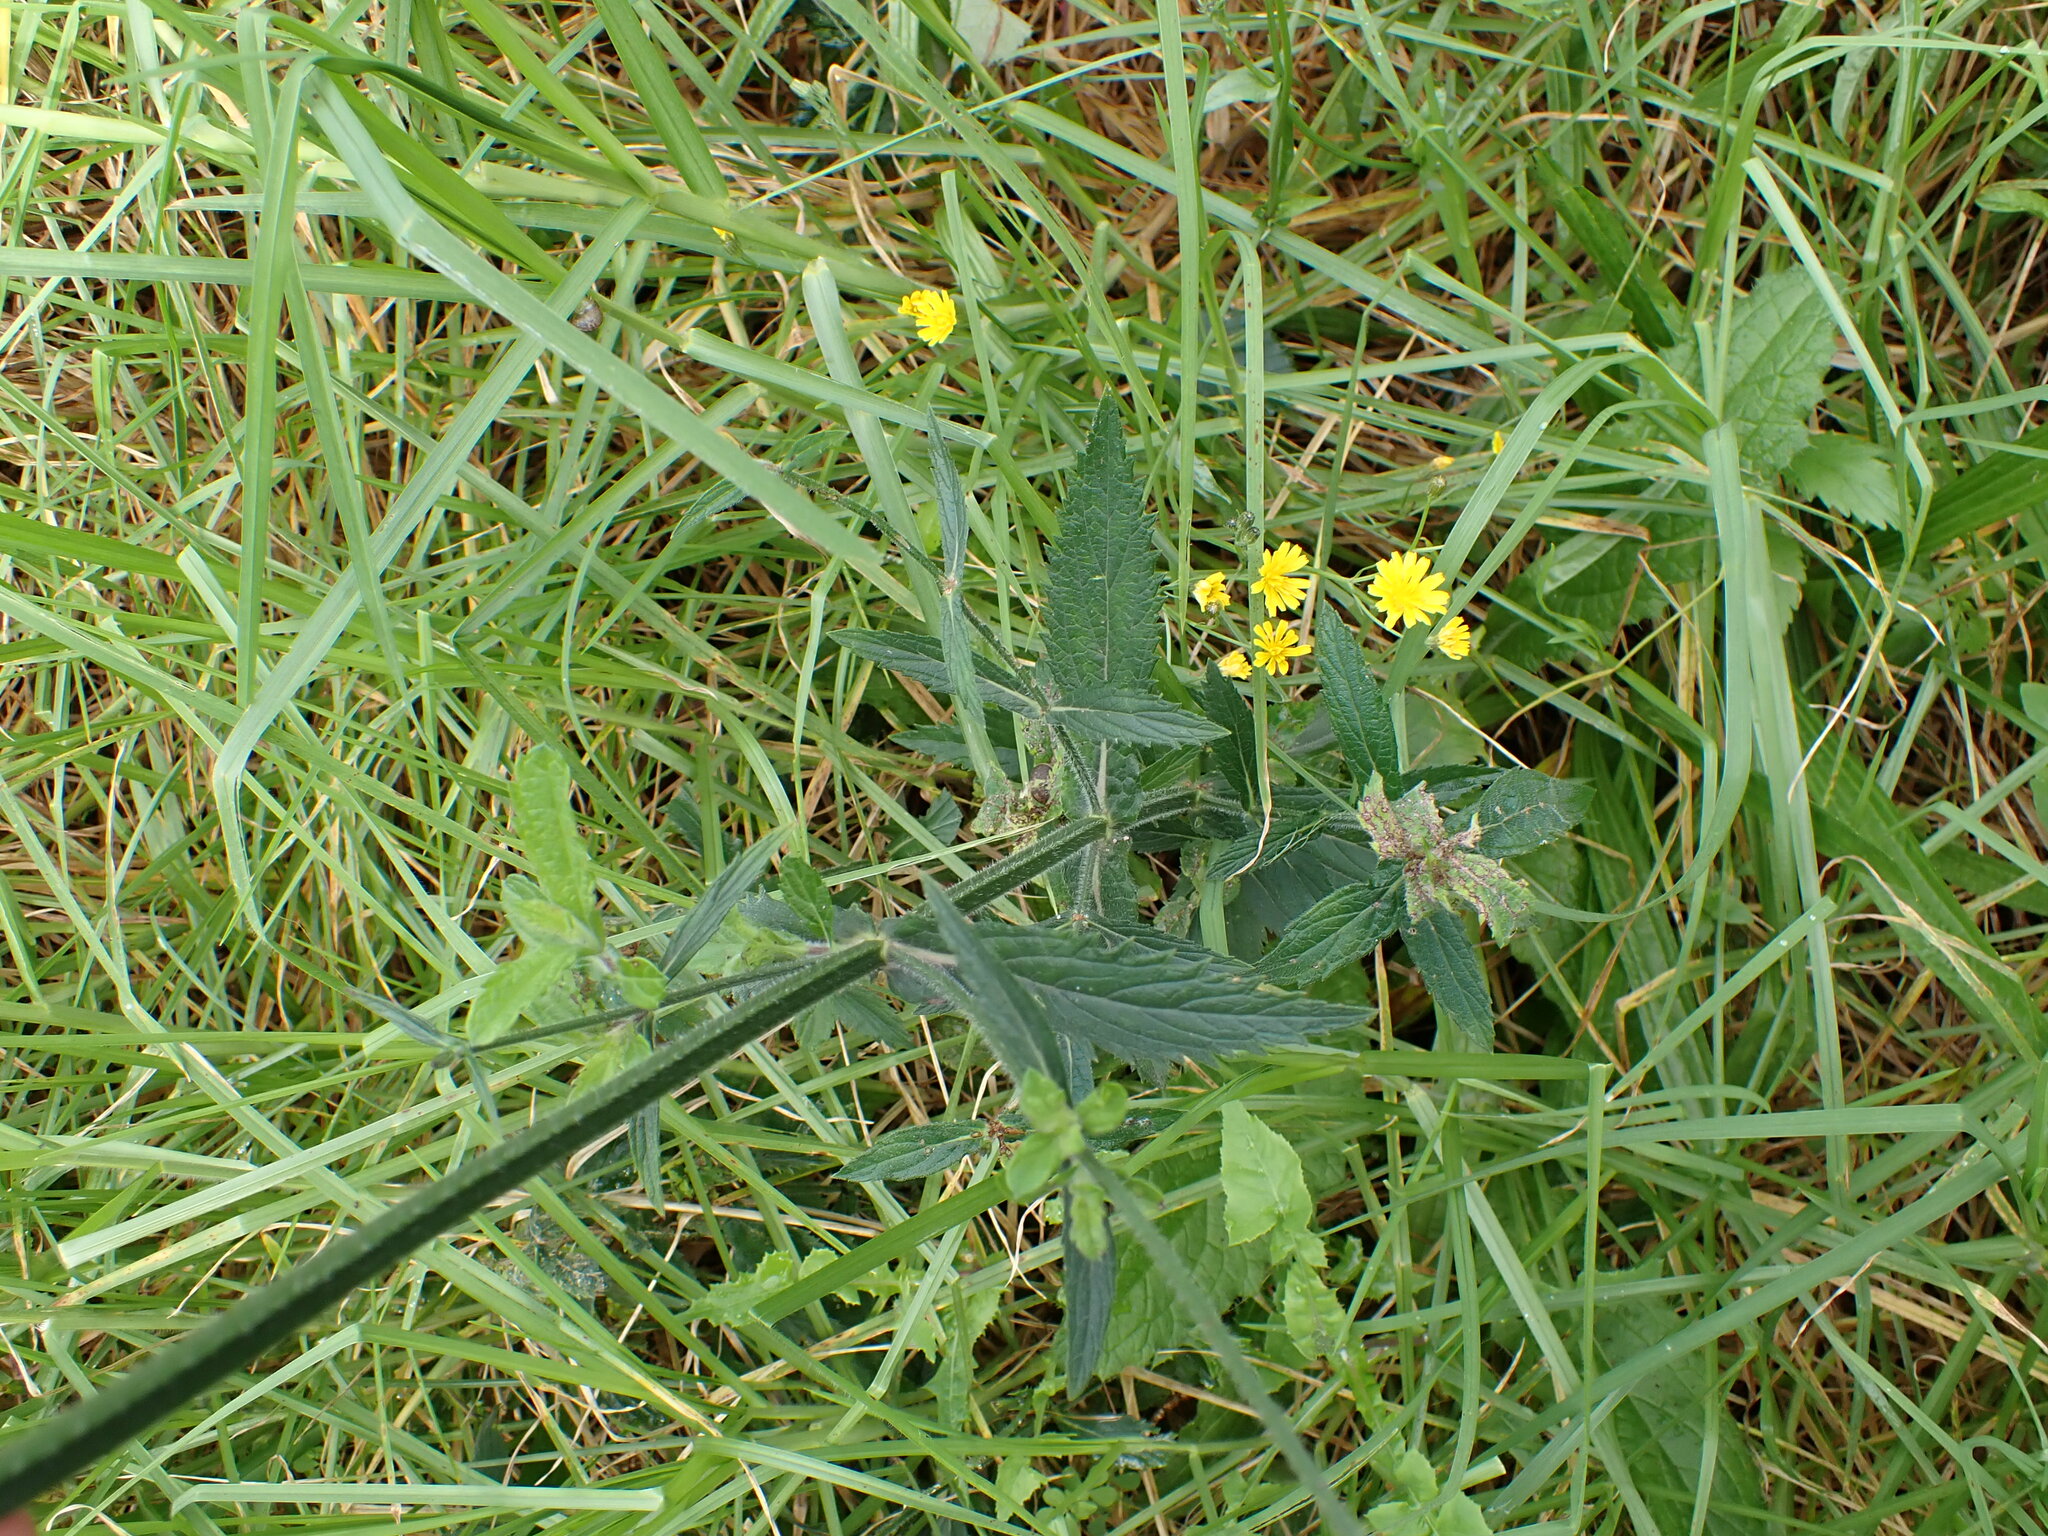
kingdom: Plantae
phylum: Tracheophyta
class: Magnoliopsida
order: Lamiales
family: Verbenaceae
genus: Verbena
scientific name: Verbena incompta
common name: Purpletop vervain
